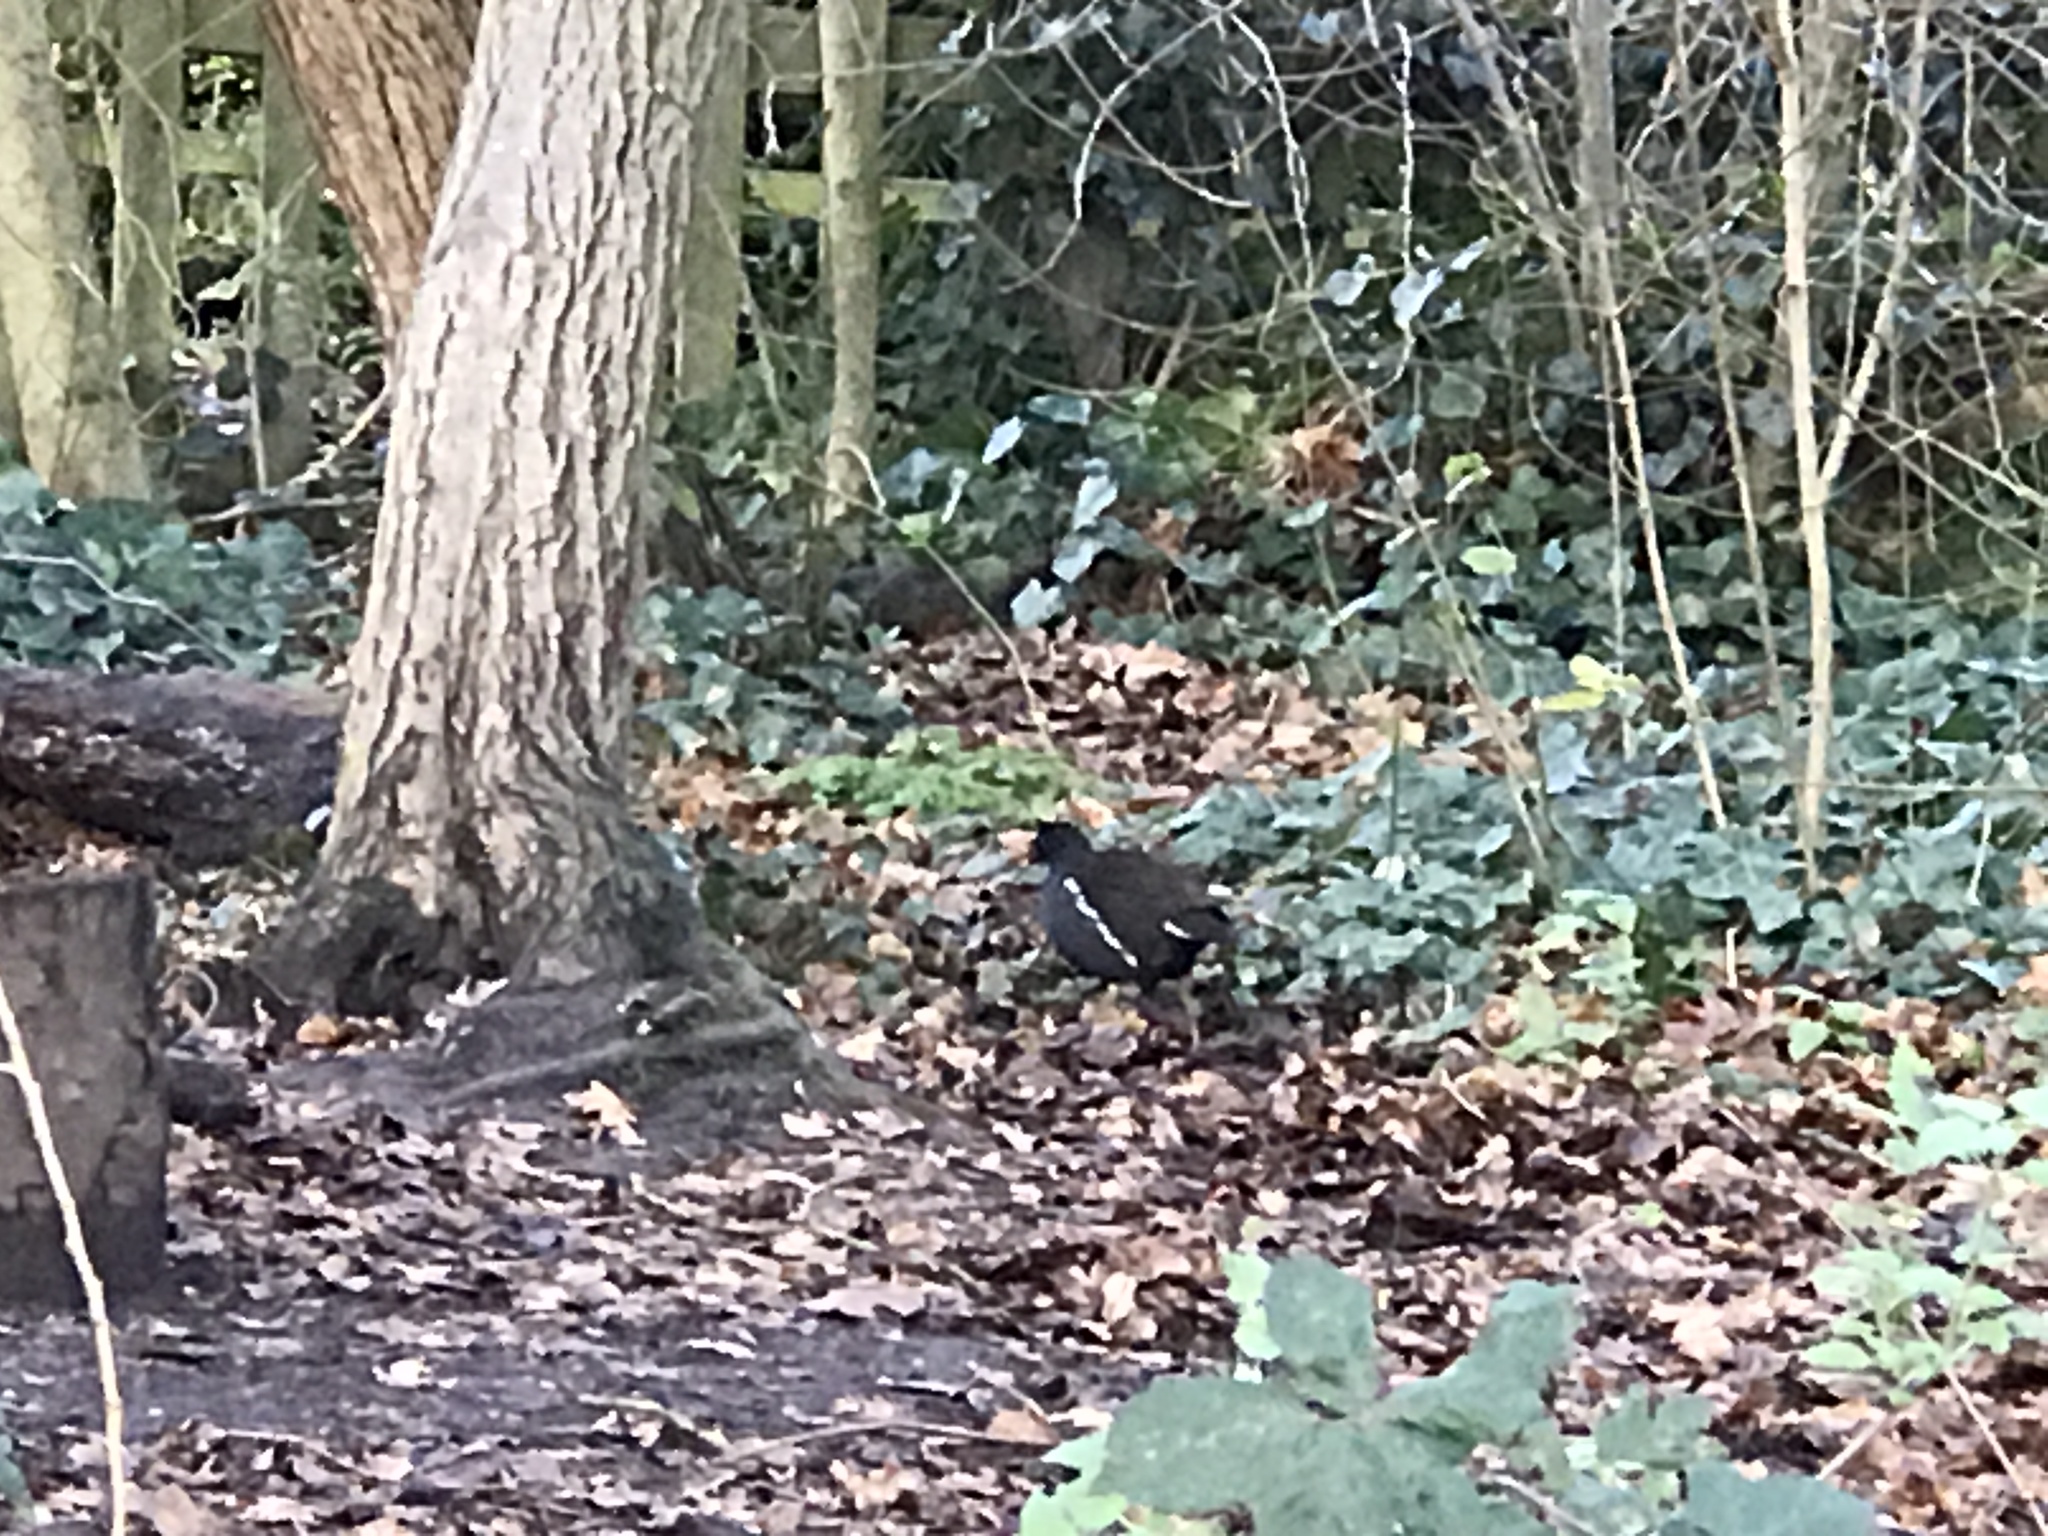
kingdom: Animalia
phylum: Chordata
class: Aves
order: Gruiformes
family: Rallidae
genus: Gallinula
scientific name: Gallinula chloropus
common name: Common moorhen
